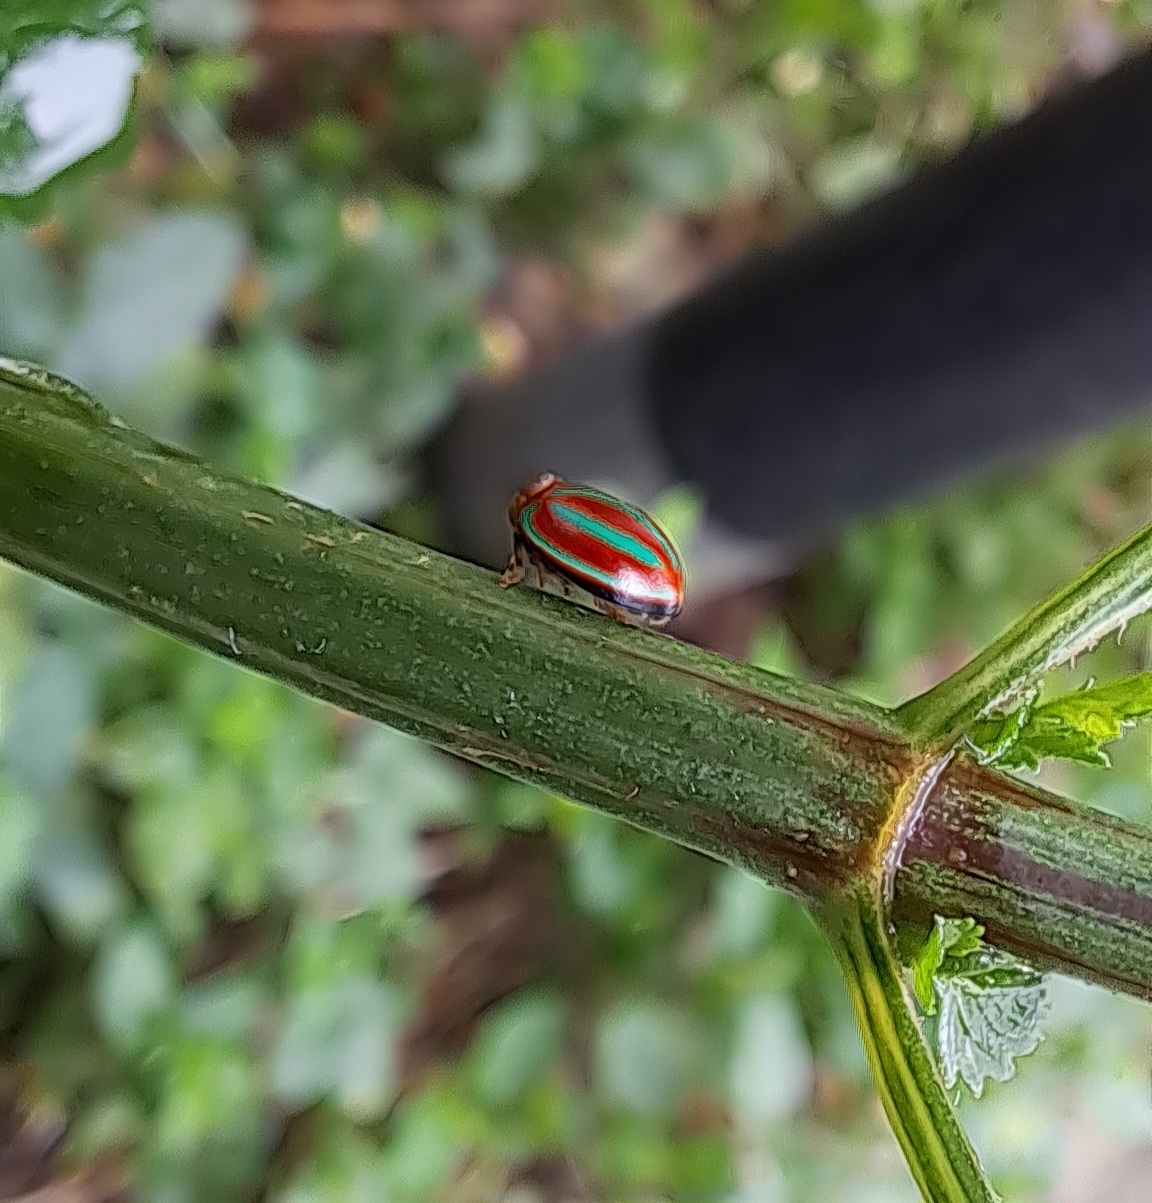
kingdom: Animalia
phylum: Arthropoda
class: Insecta
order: Hemiptera
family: Issidae
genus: Hemisphaerius
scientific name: Hemisphaerius coccinelloides
